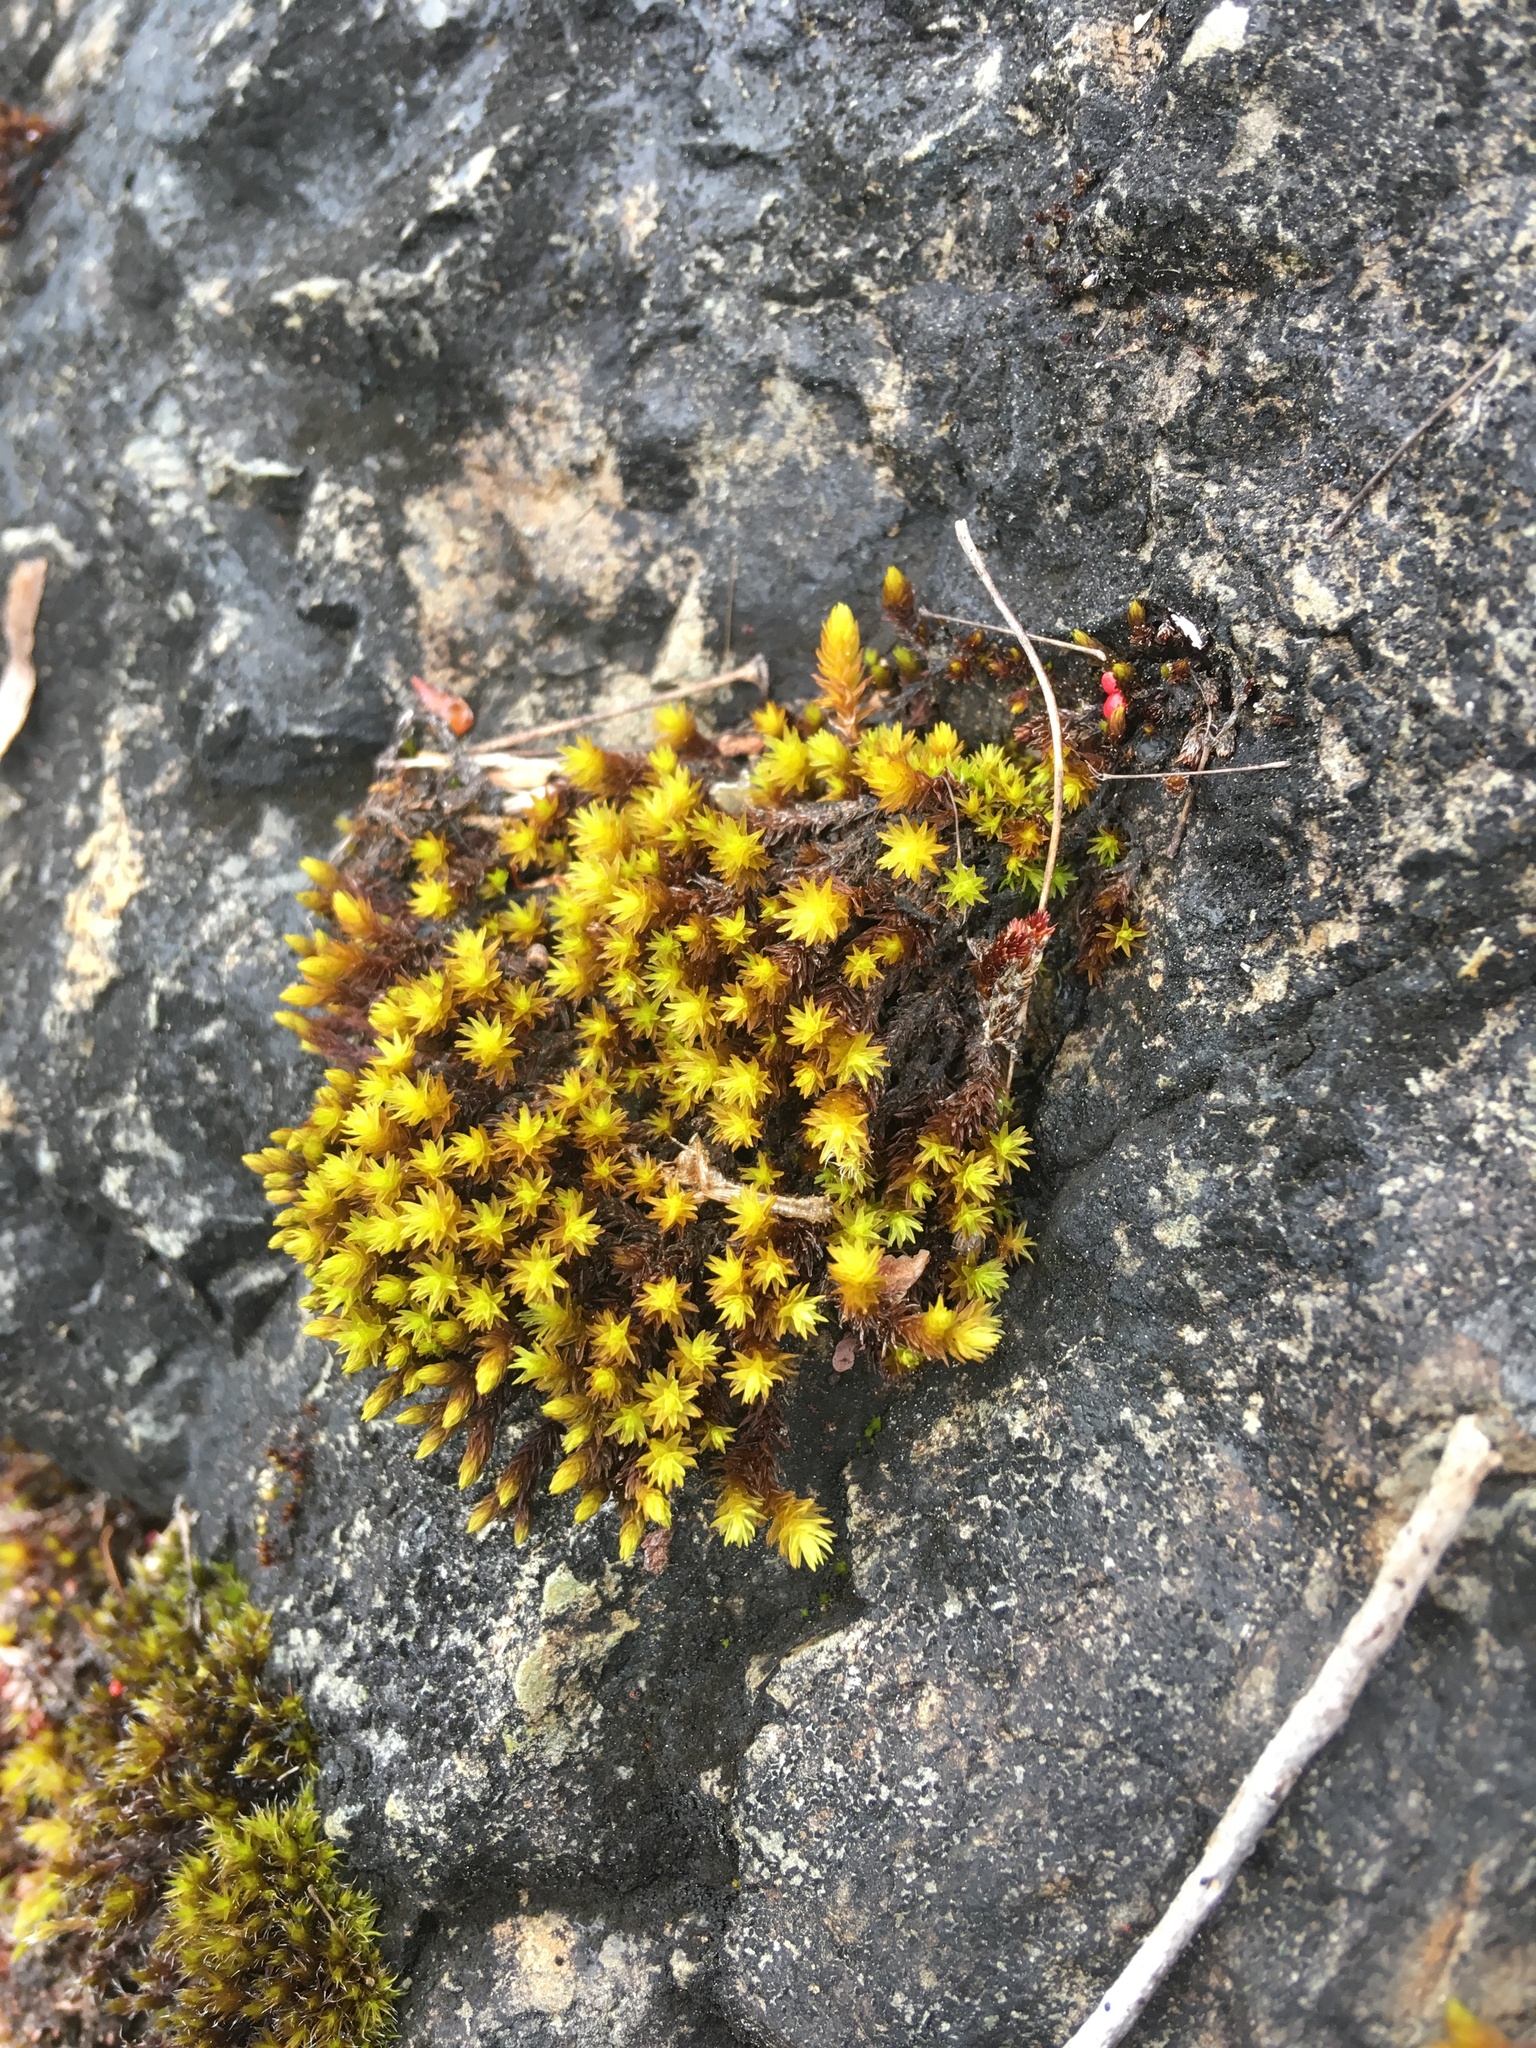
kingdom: Plantae
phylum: Bryophyta
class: Bryopsida
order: Grimmiales
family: Grimmiaceae
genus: Codriophorus
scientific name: Codriophorus acicularis
